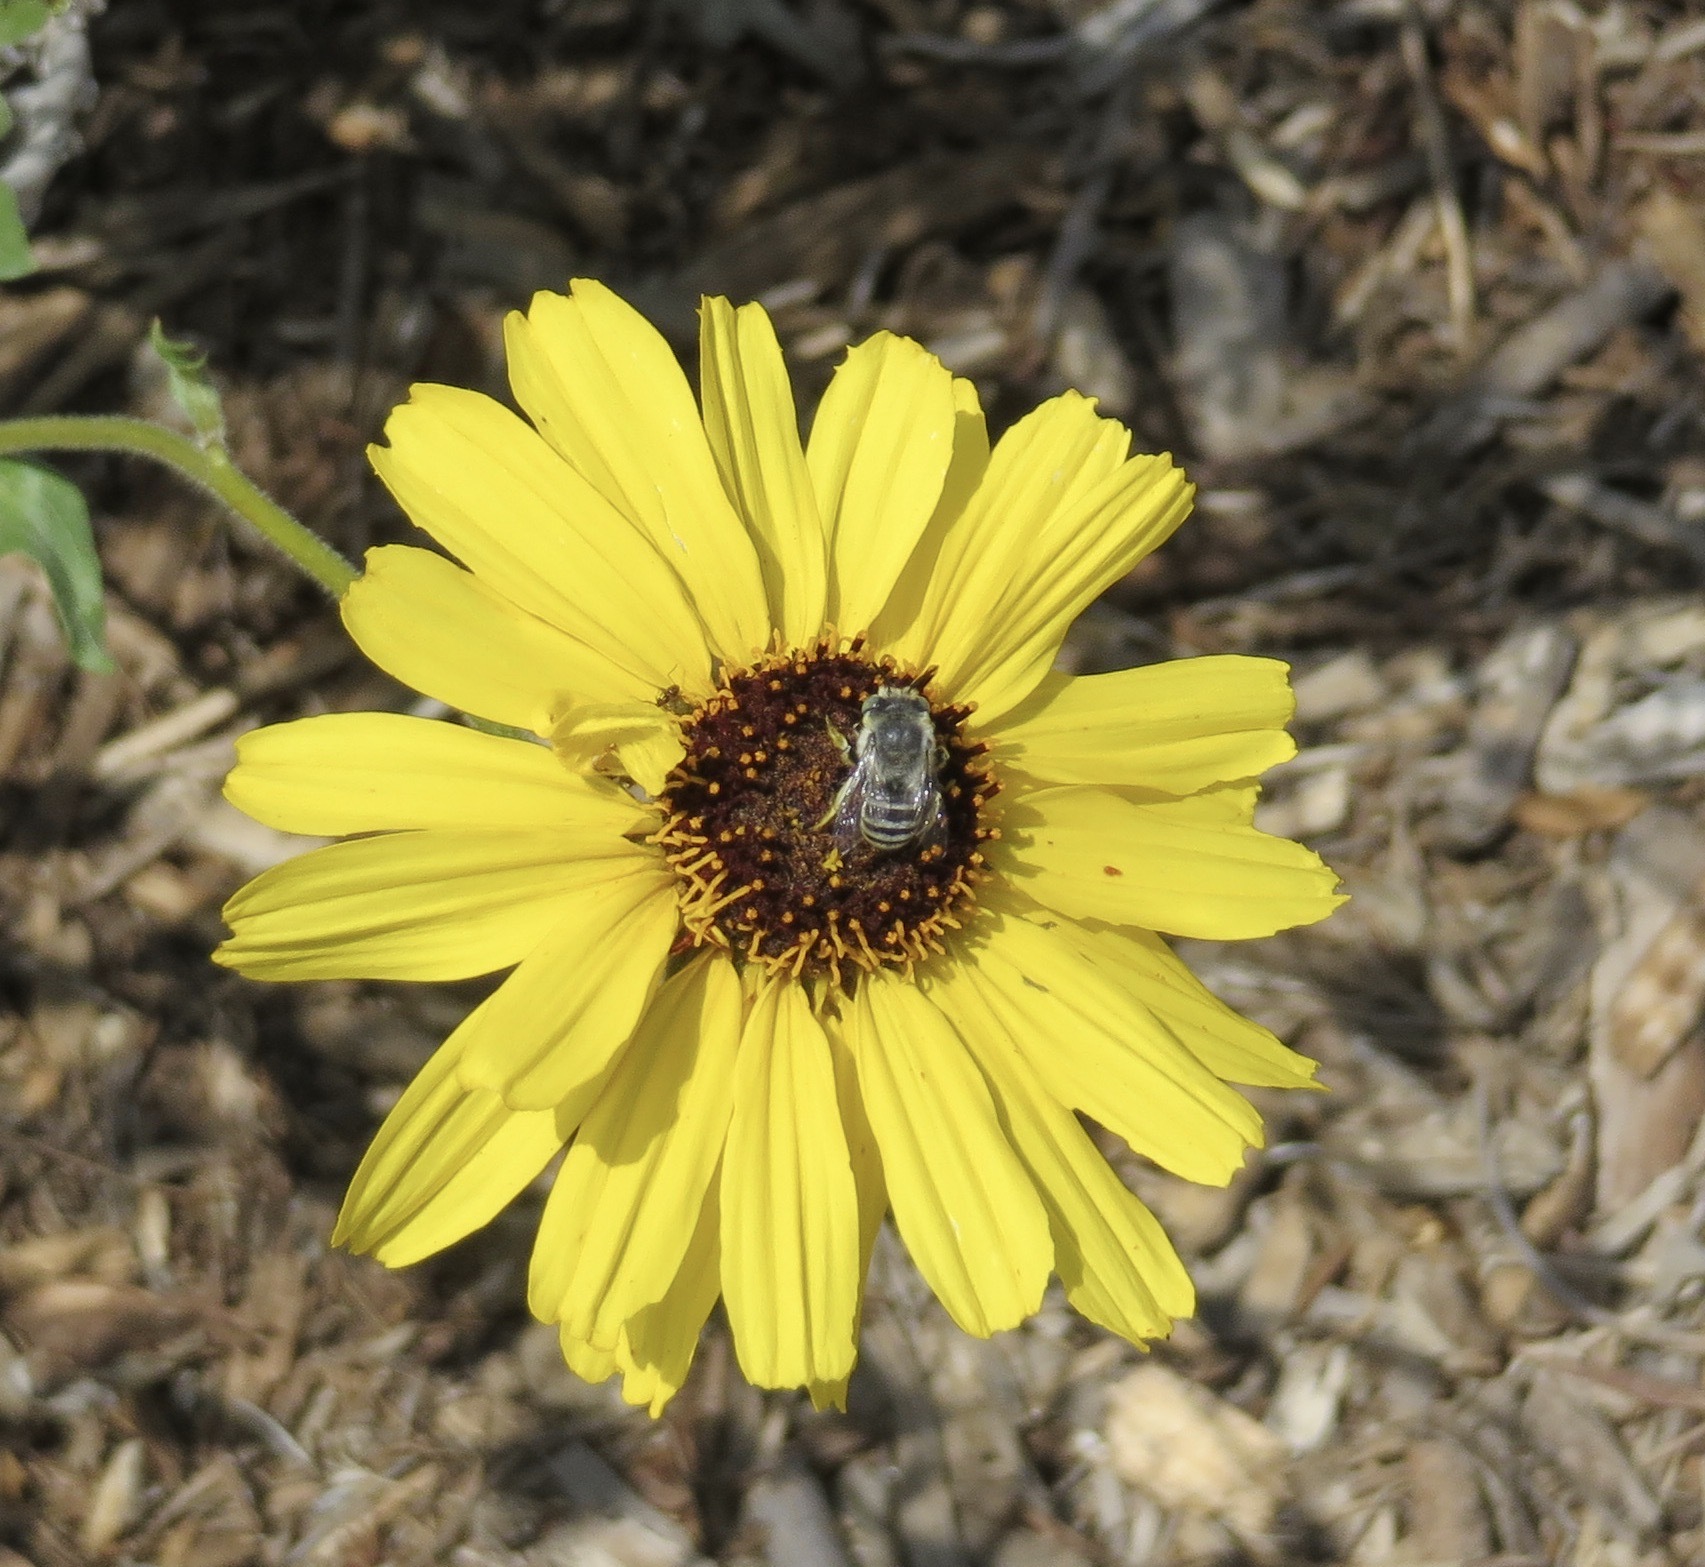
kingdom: Animalia
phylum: Arthropoda
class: Insecta
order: Hymenoptera
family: Apidae
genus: Anthophora
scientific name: Anthophora curta
